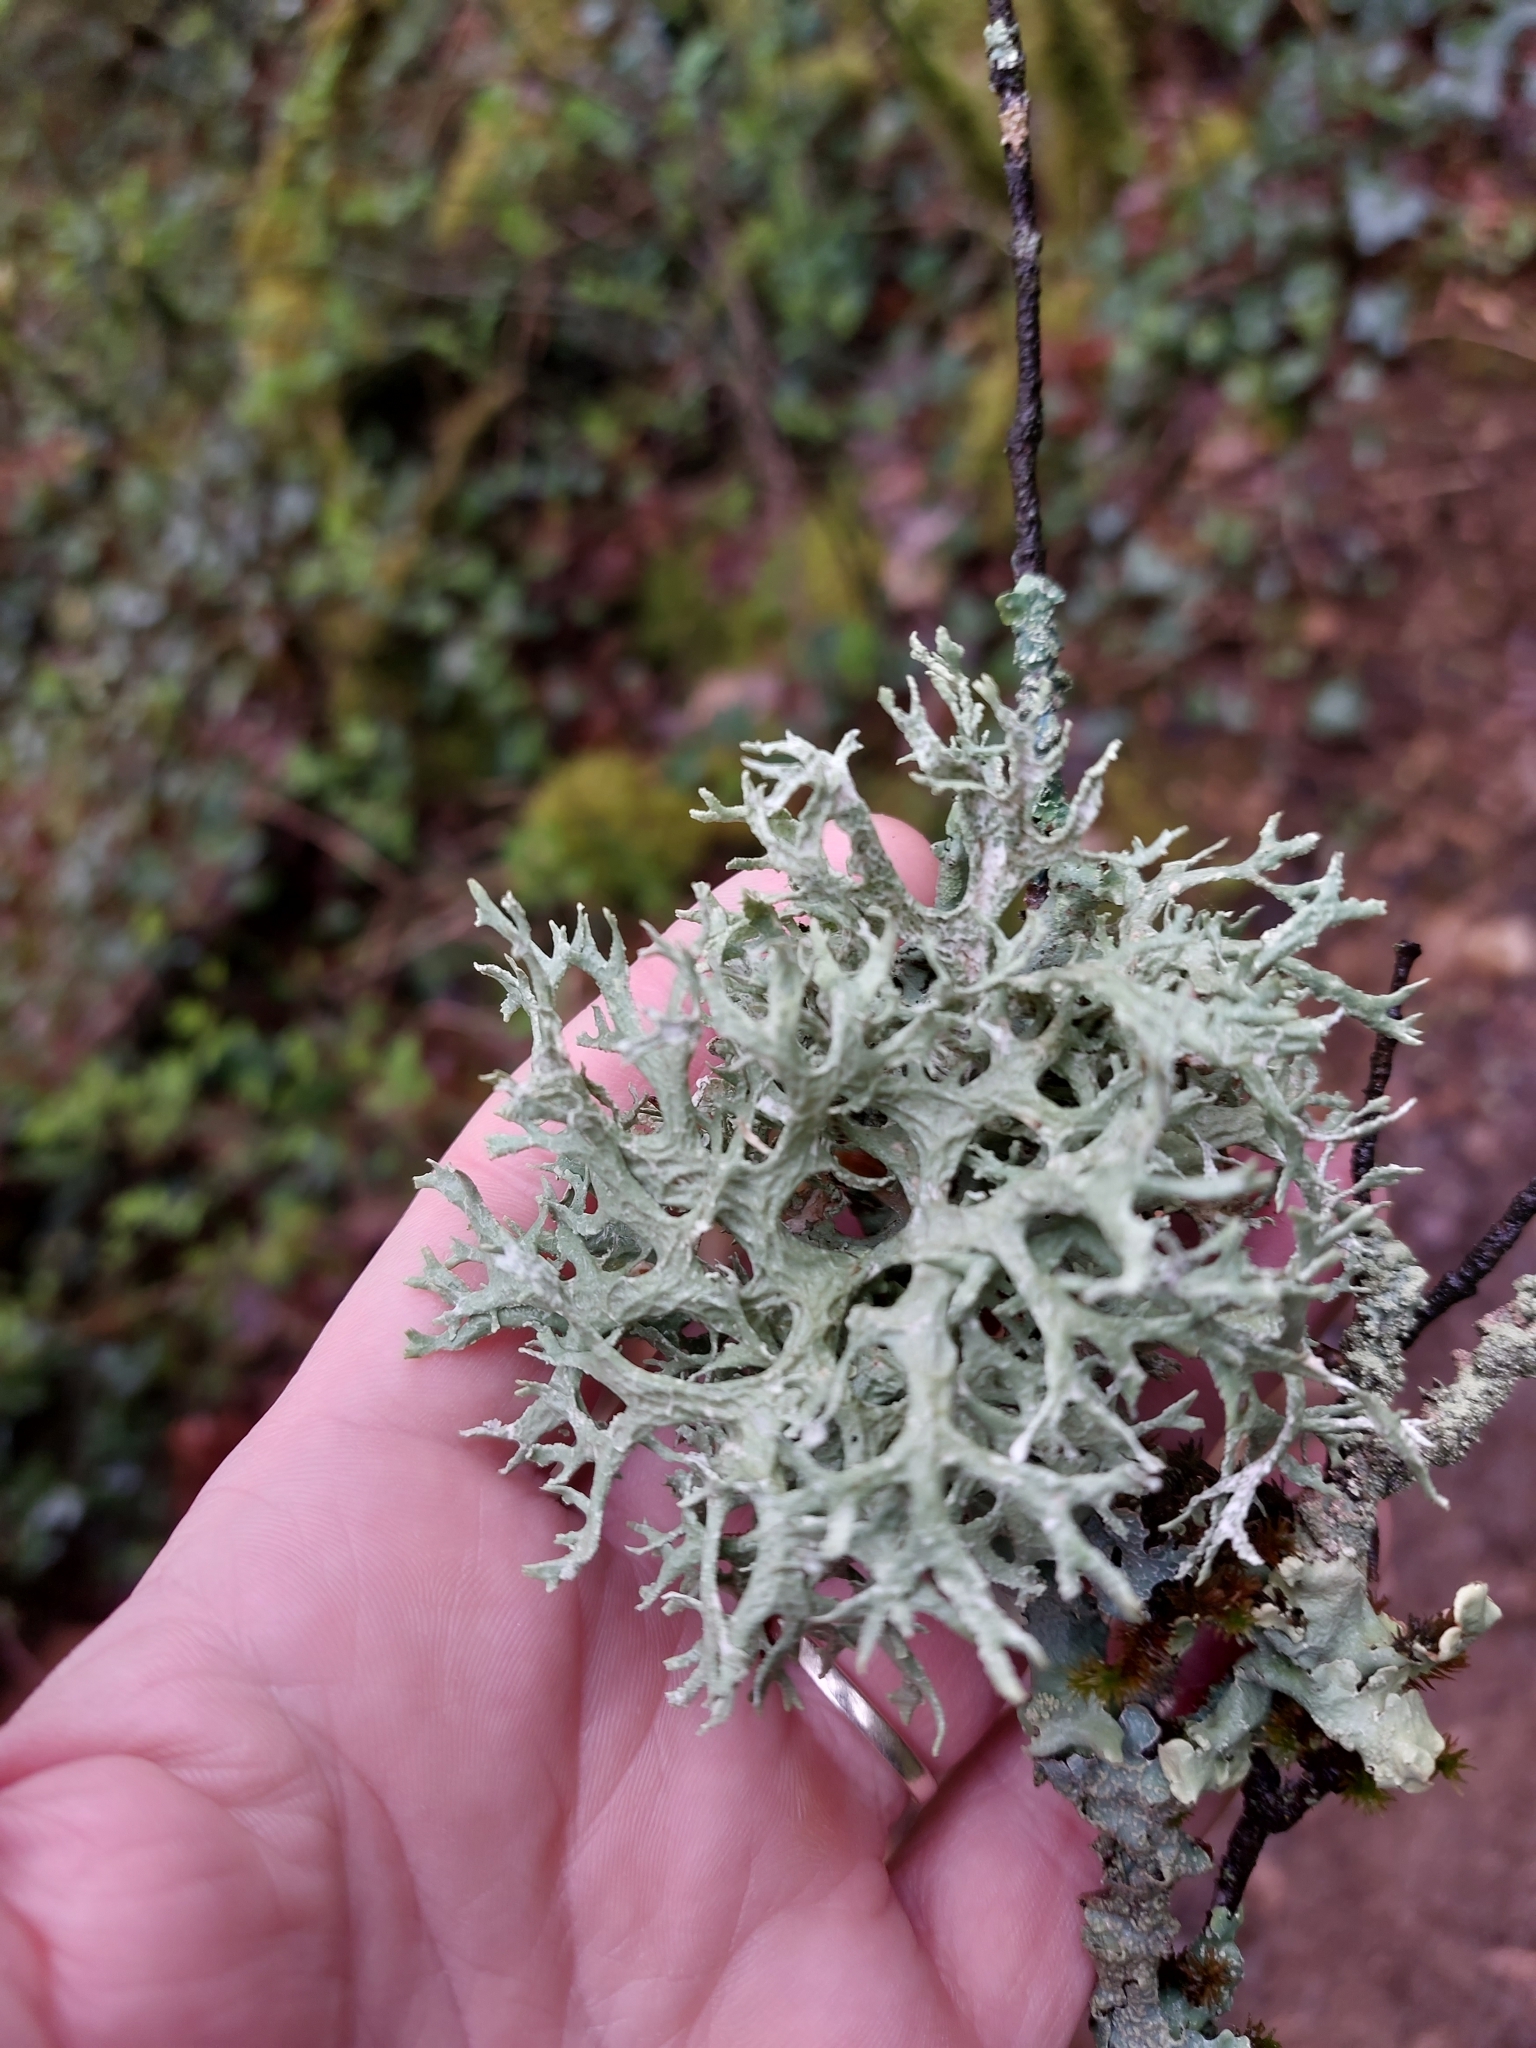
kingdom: Fungi
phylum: Ascomycota
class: Lecanoromycetes
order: Lecanorales
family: Parmeliaceae
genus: Evernia
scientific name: Evernia prunastri
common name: Oak moss
